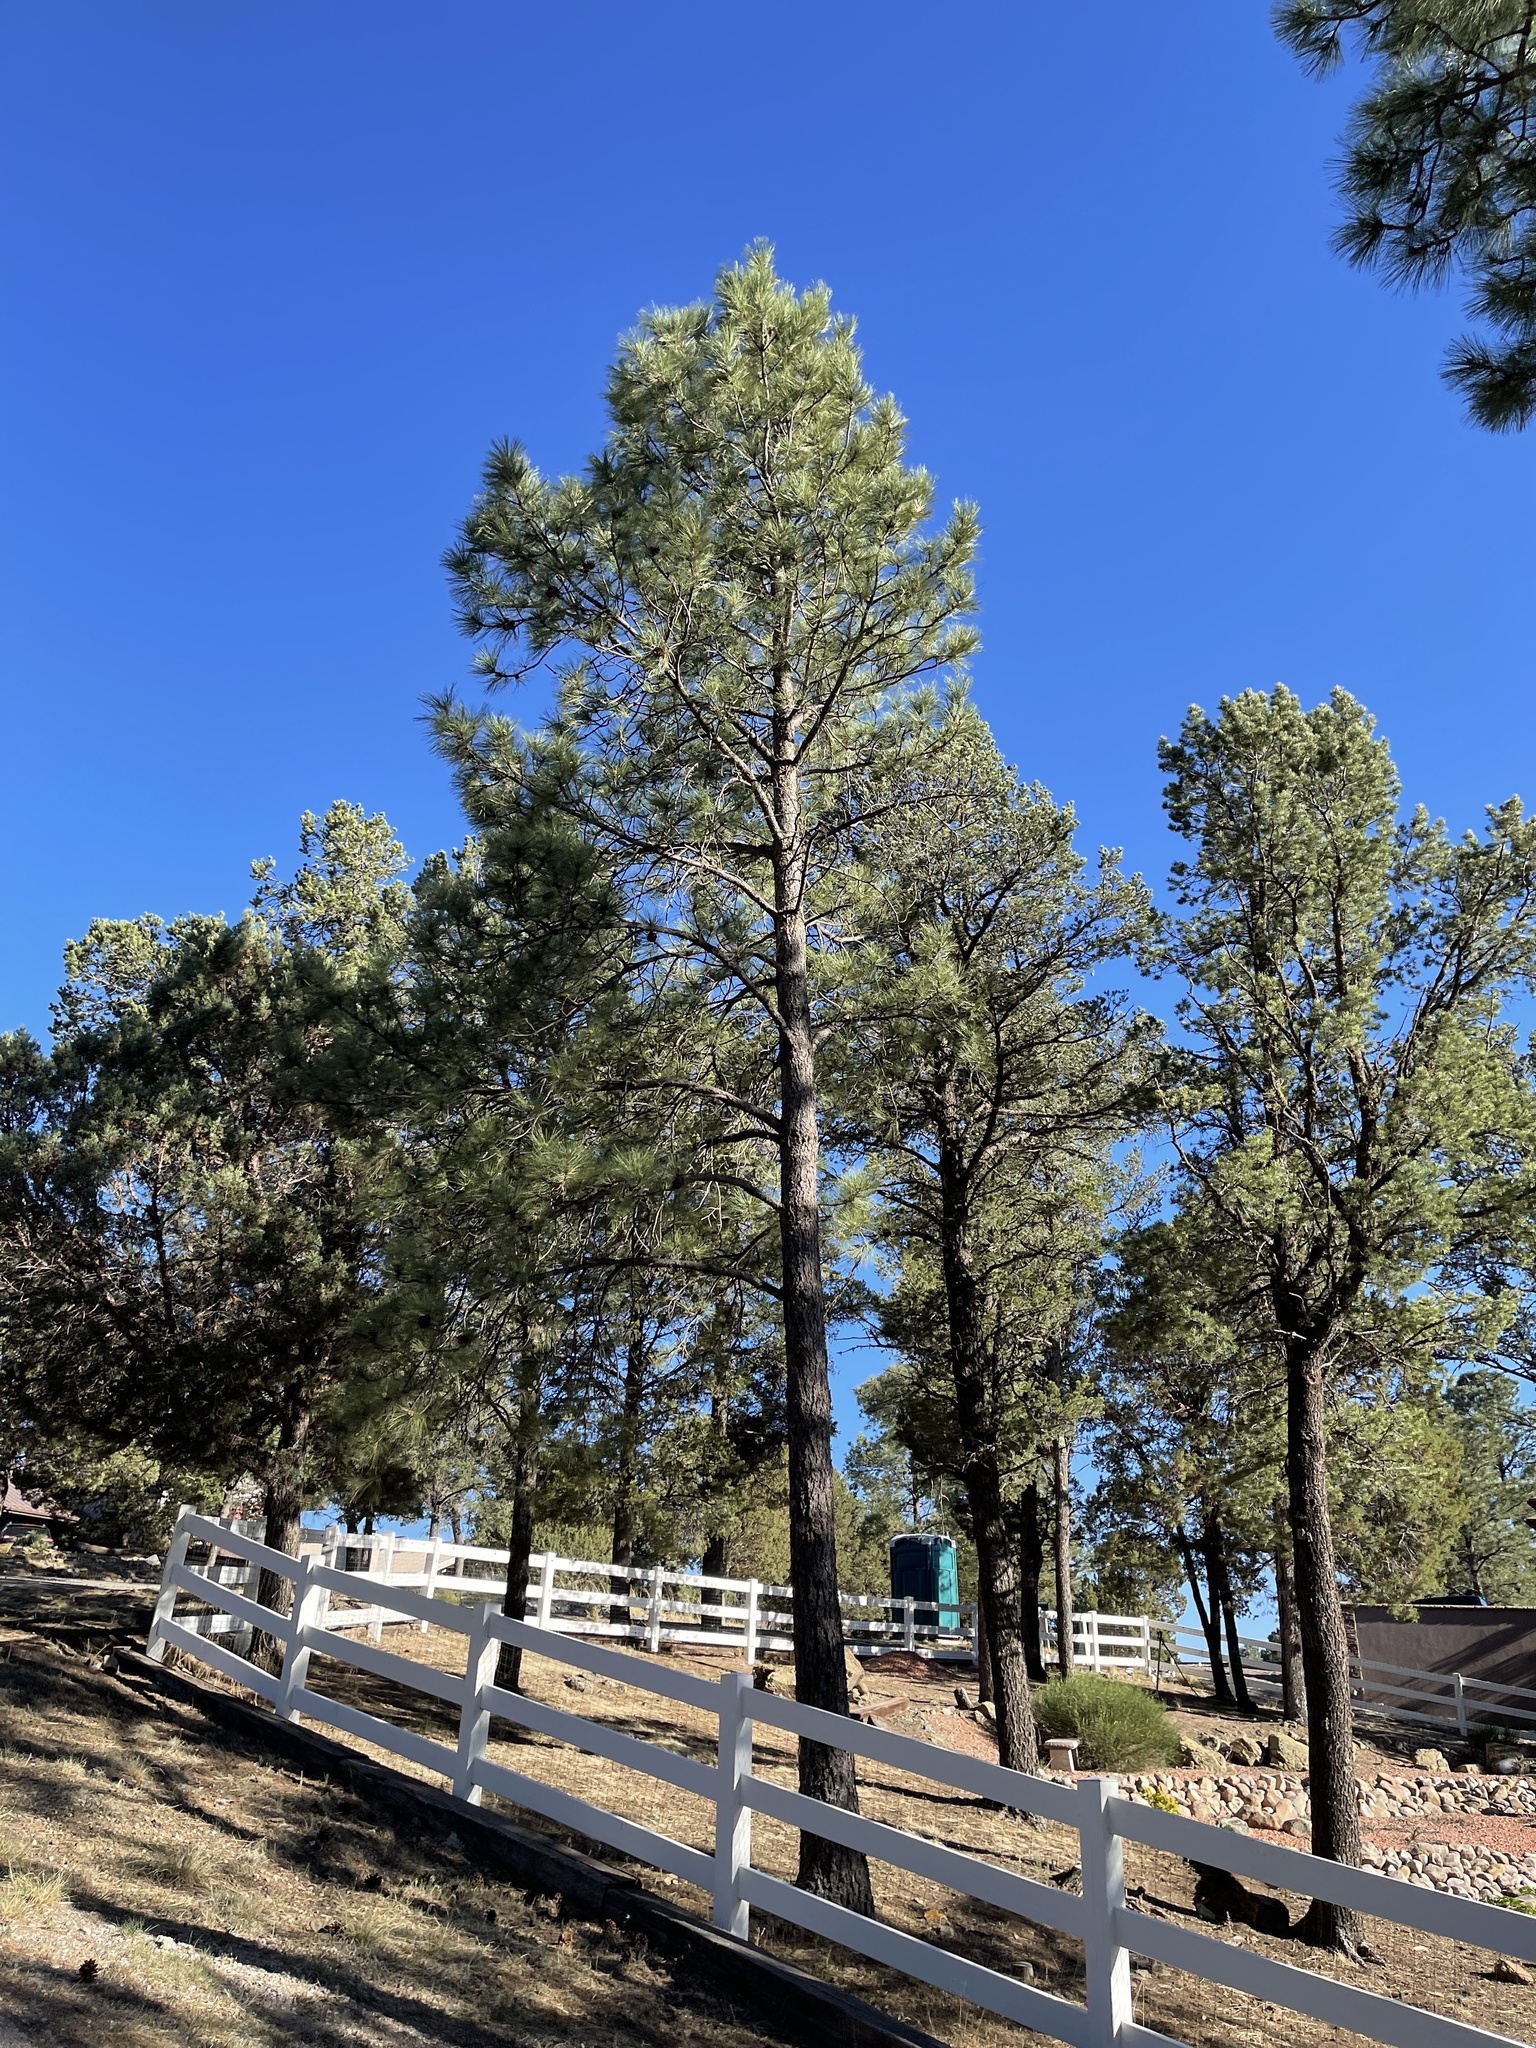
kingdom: Plantae
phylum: Tracheophyta
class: Pinopsida
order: Pinales
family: Pinaceae
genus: Pinus
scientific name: Pinus ponderosa
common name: Western yellow-pine
